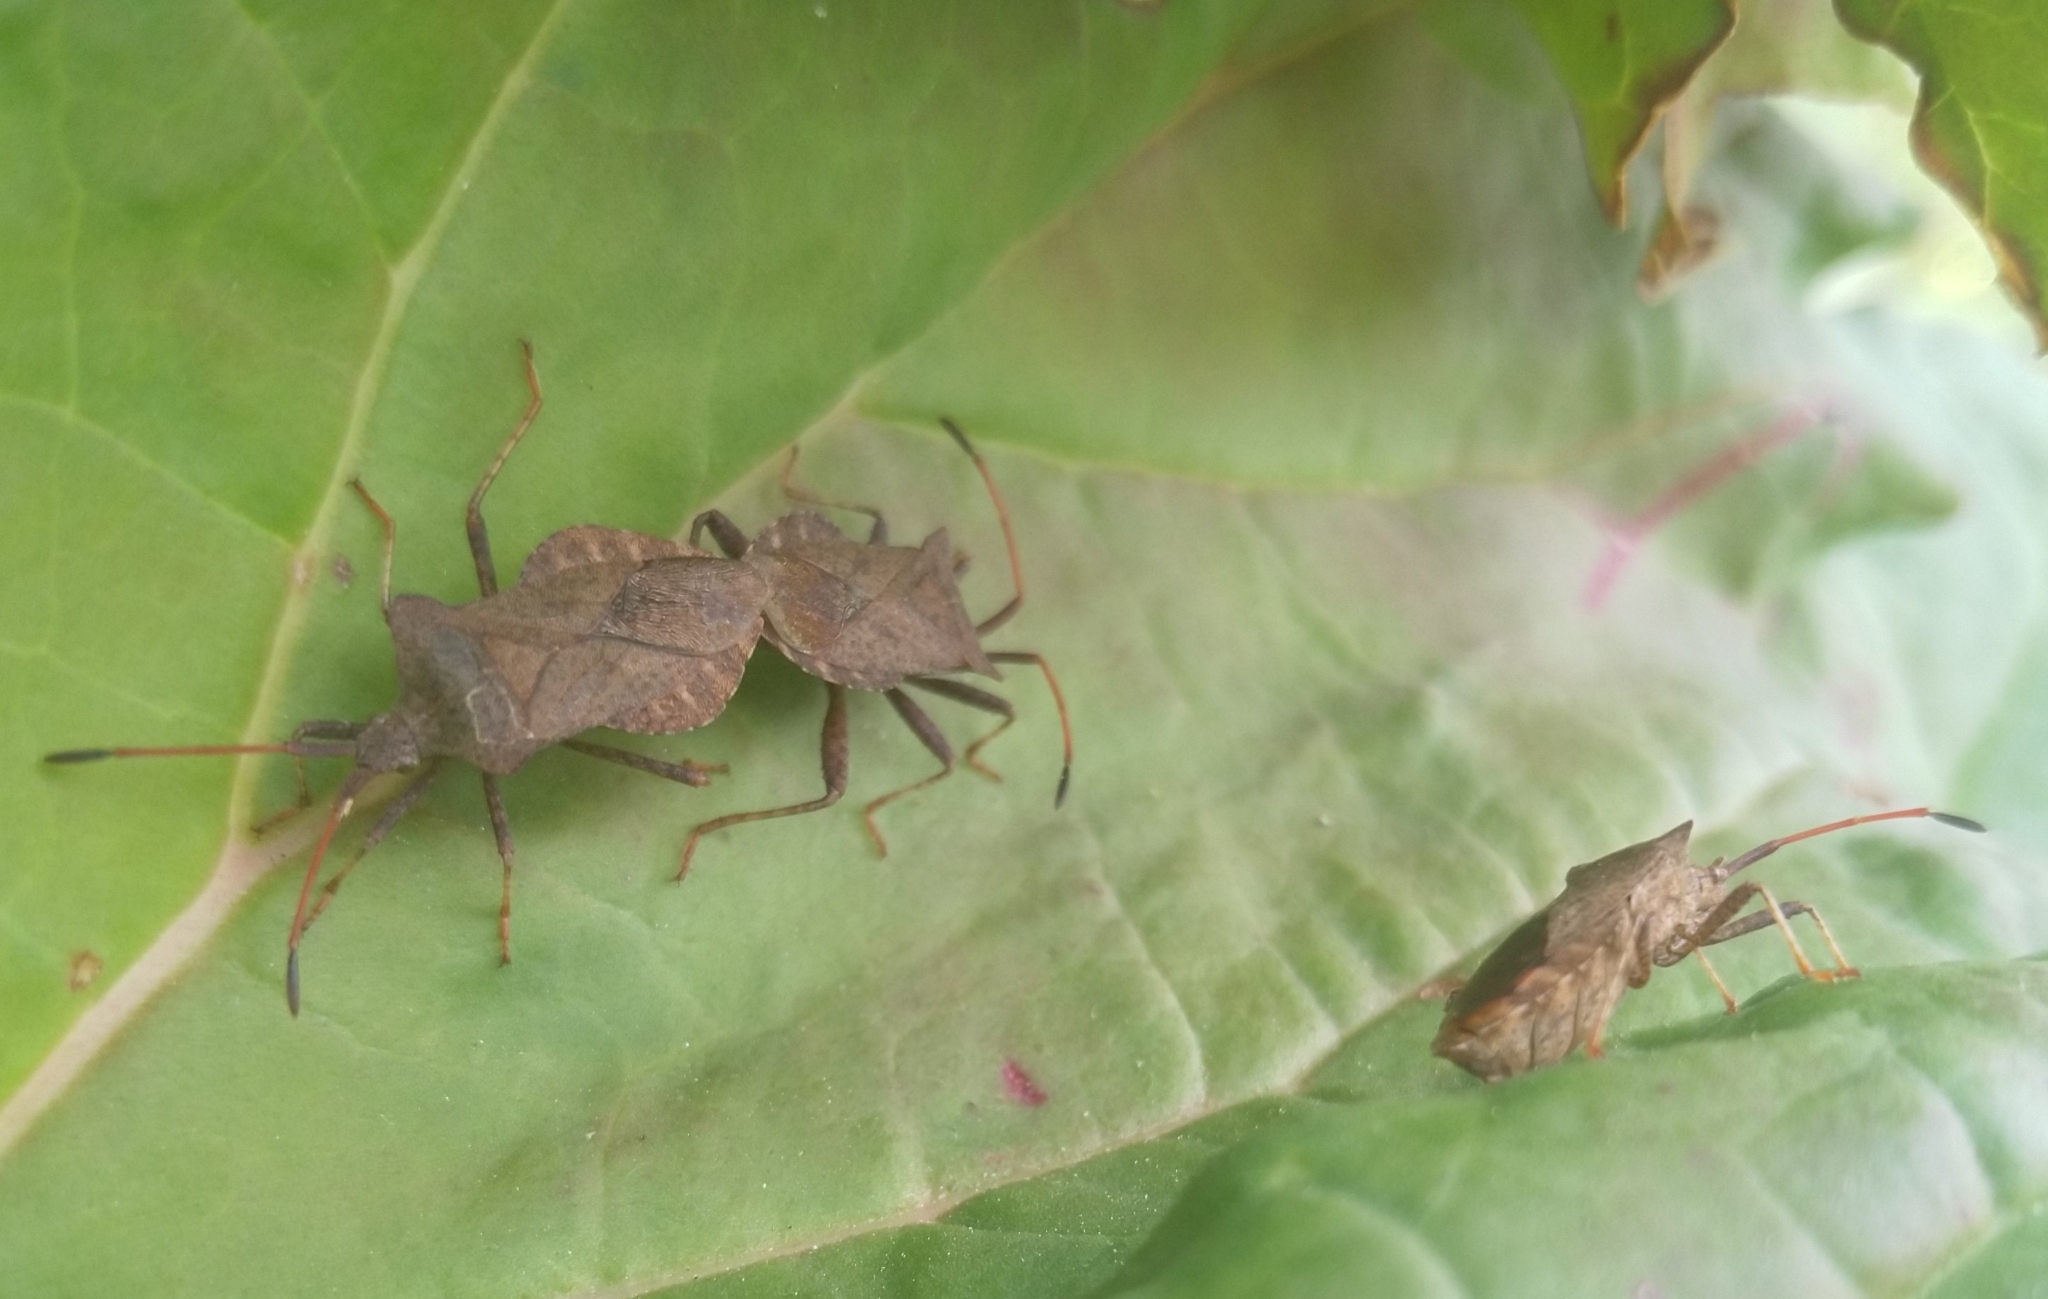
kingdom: Animalia
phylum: Arthropoda
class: Insecta
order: Hemiptera
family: Coreidae
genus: Coreus
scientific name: Coreus marginatus
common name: Dock bug
